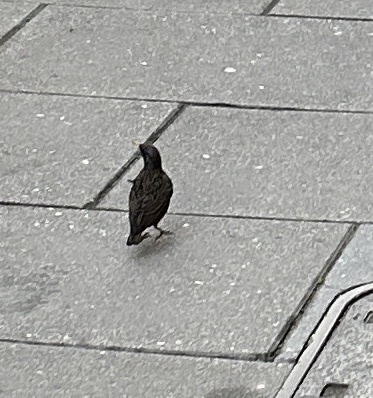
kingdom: Animalia
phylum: Chordata
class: Aves
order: Passeriformes
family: Sturnidae
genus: Sturnus
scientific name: Sturnus vulgaris
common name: Common starling
